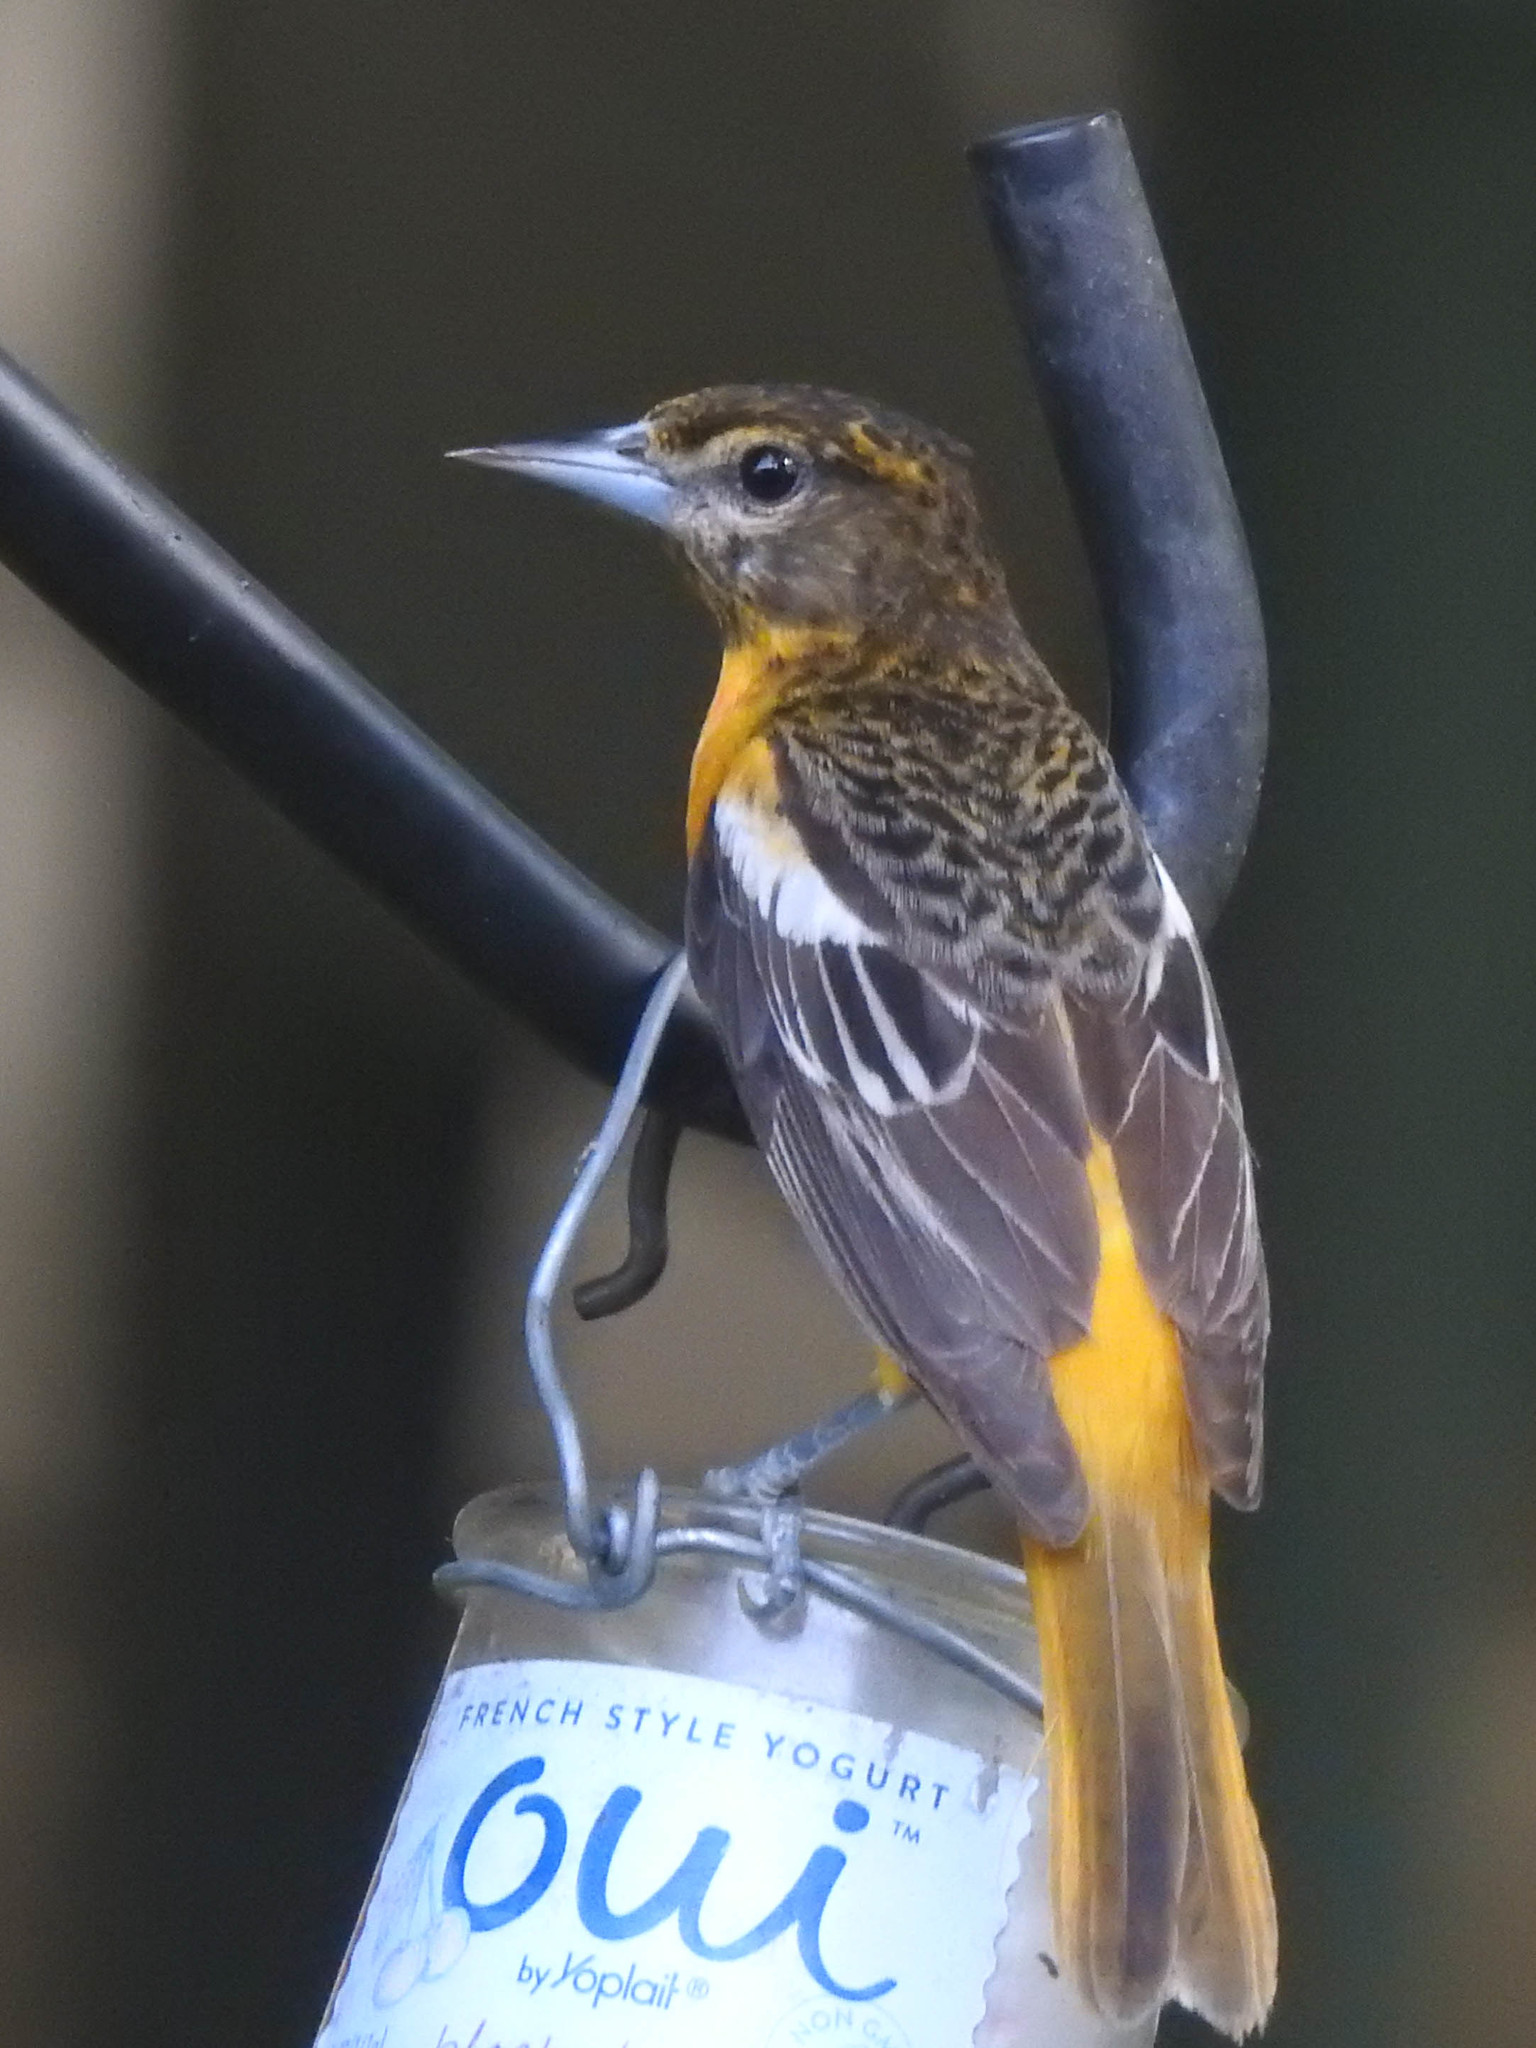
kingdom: Animalia
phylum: Chordata
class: Aves
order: Passeriformes
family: Icteridae
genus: Icterus
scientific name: Icterus galbula
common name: Baltimore oriole
